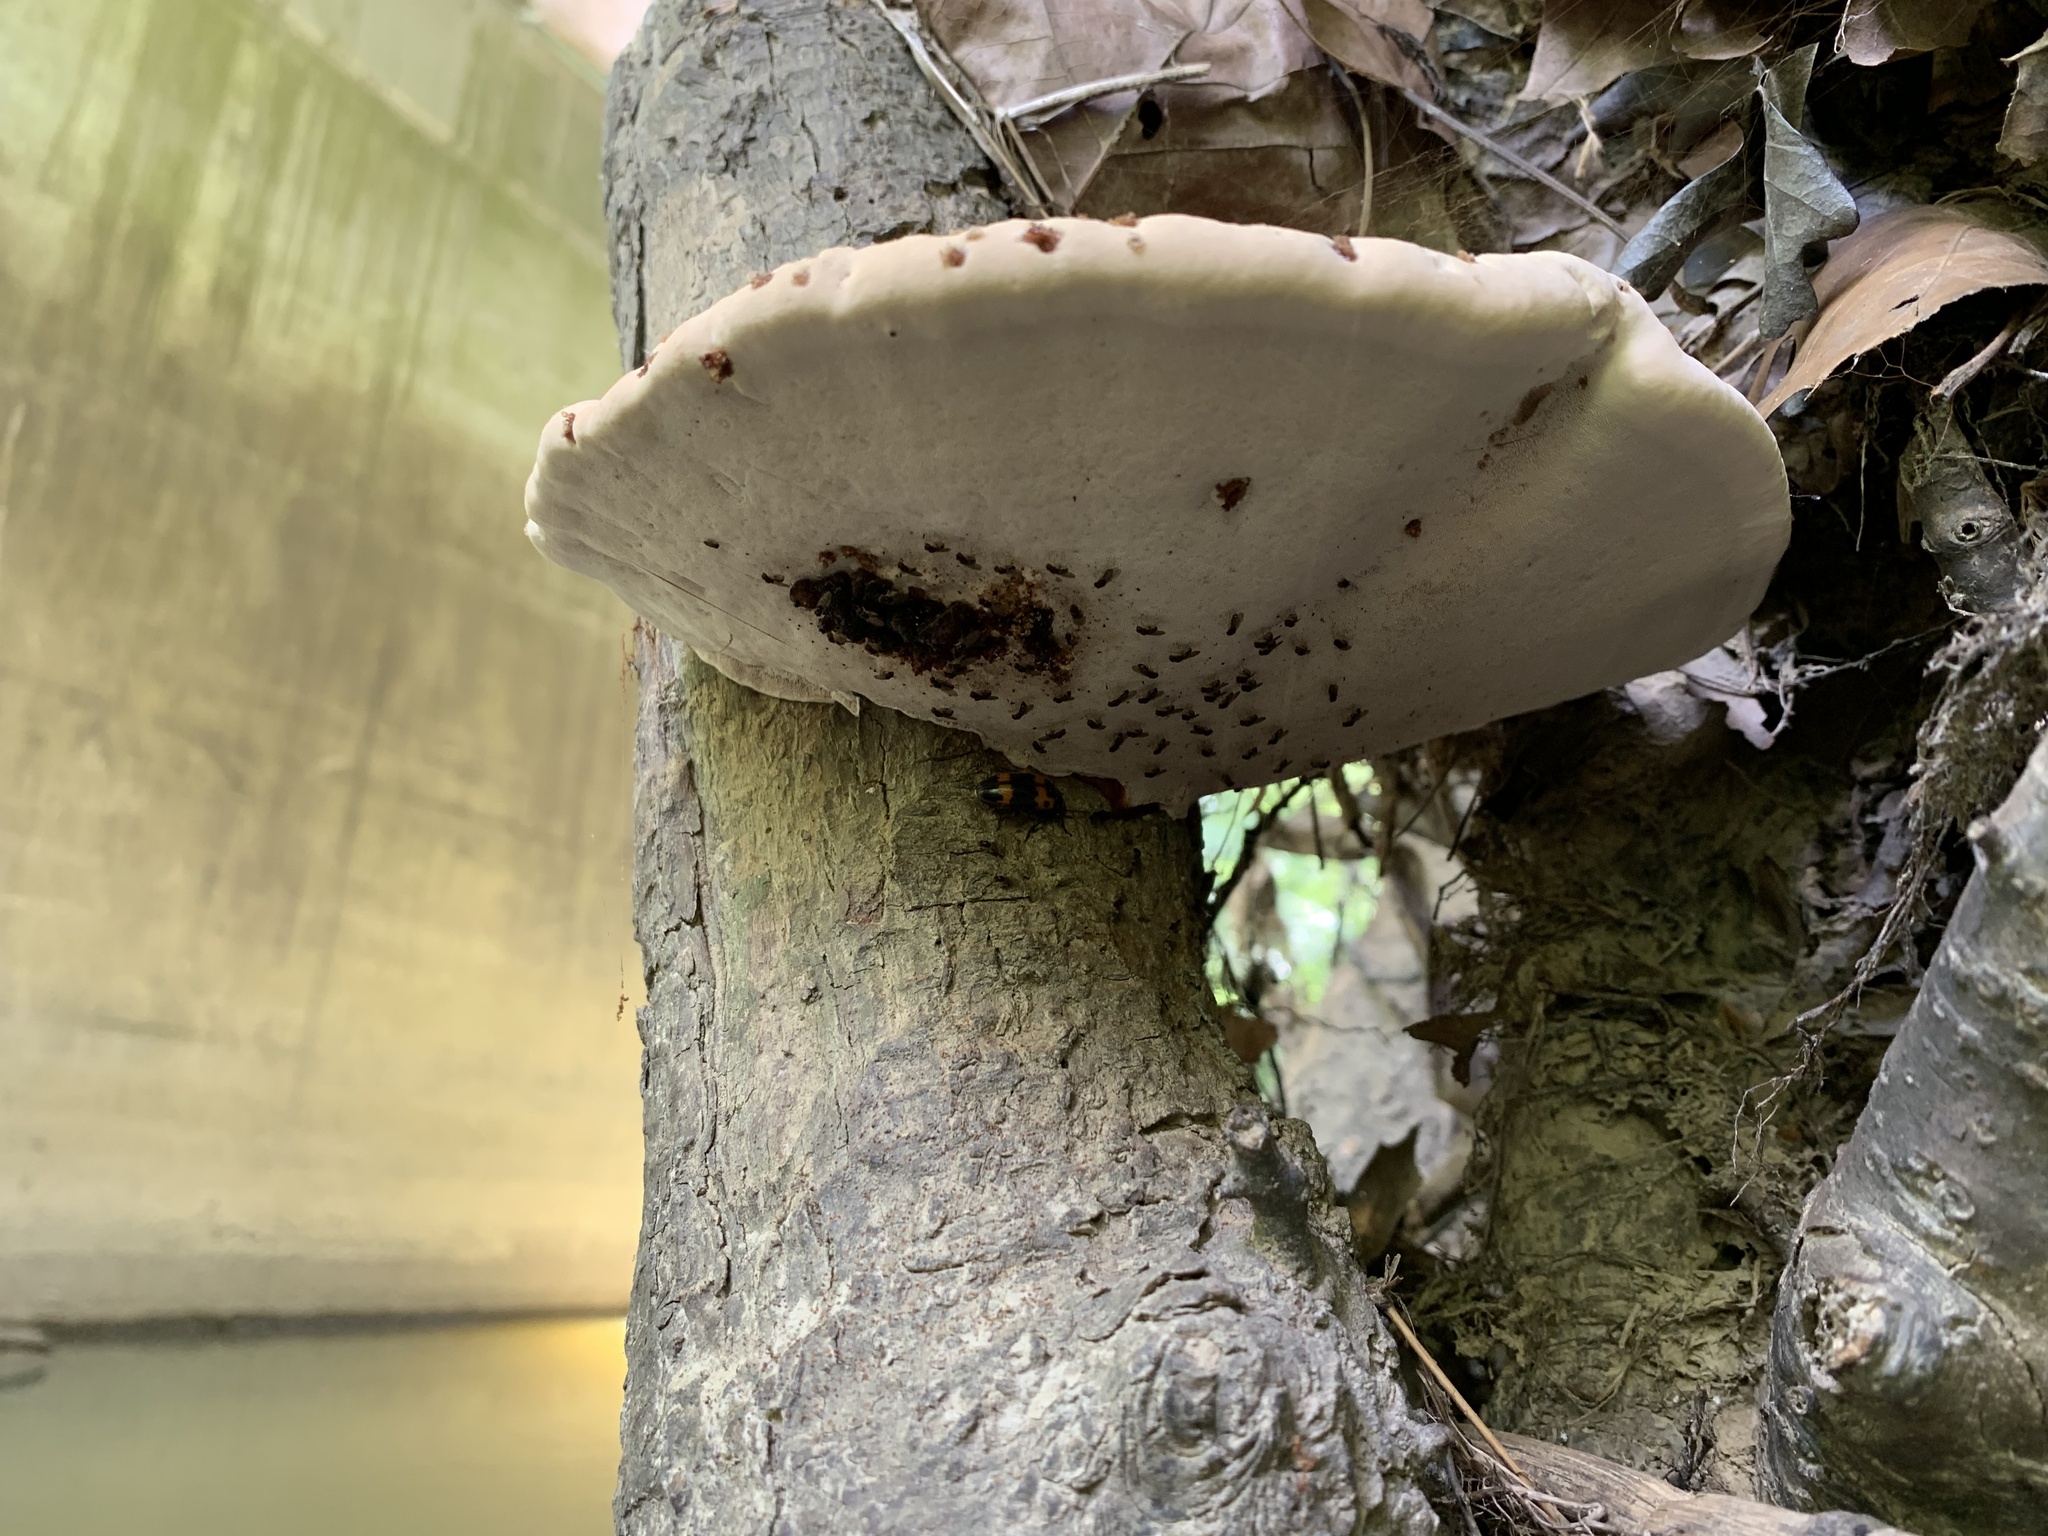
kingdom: Fungi
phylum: Basidiomycota
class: Agaricomycetes
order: Polyporales
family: Polyporaceae
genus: Ganoderma
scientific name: Ganoderma resinaceum
